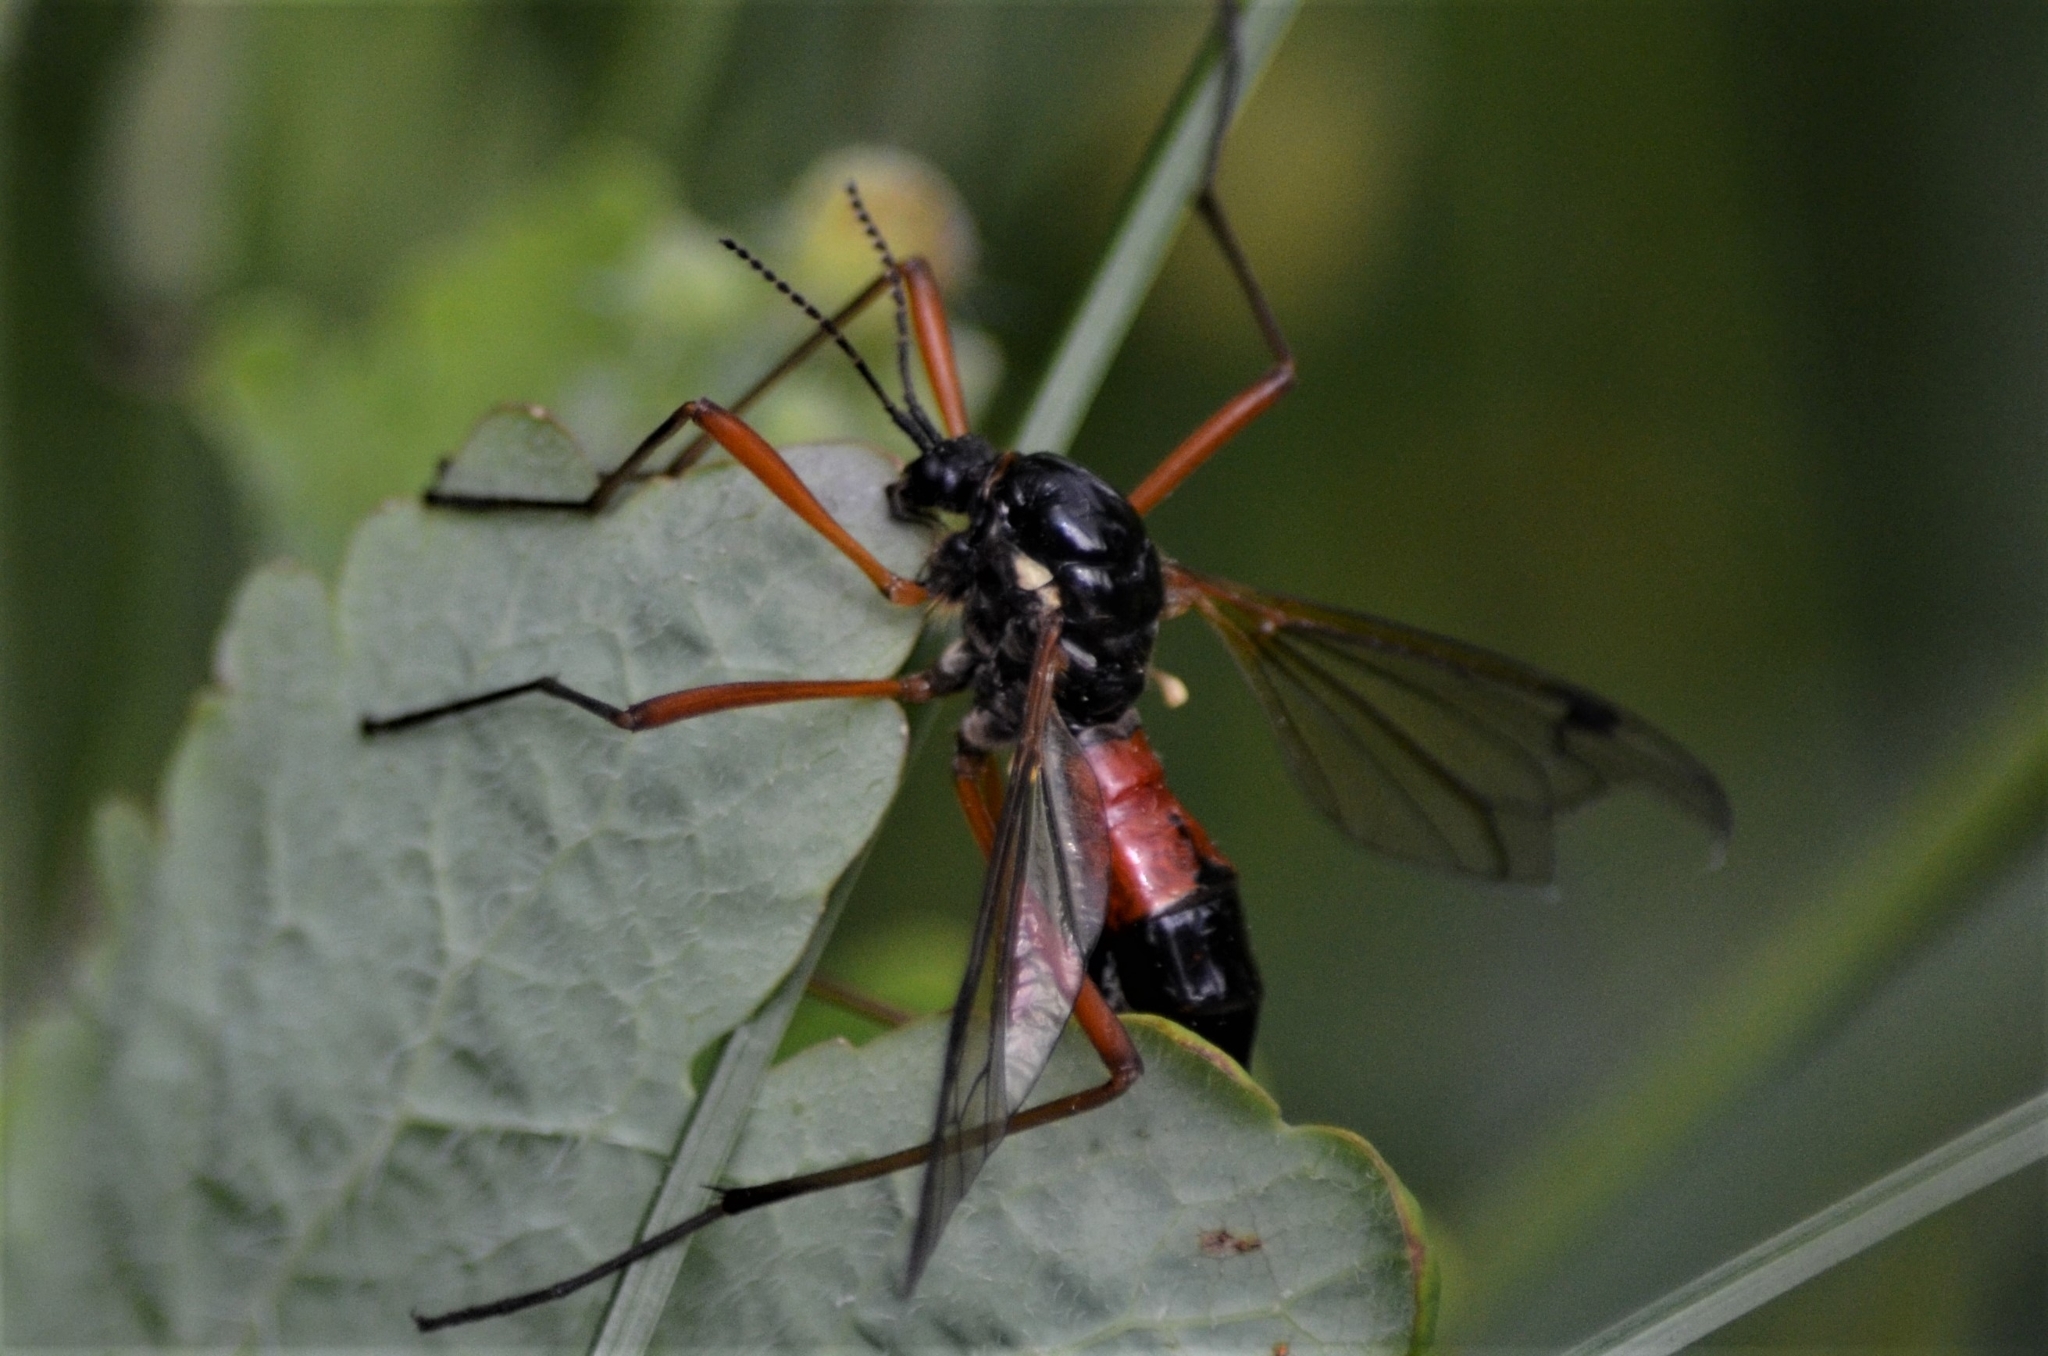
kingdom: Animalia
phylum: Arthropoda
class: Insecta
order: Diptera
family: Tipulidae
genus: Tanyptera
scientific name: Tanyptera atrata
